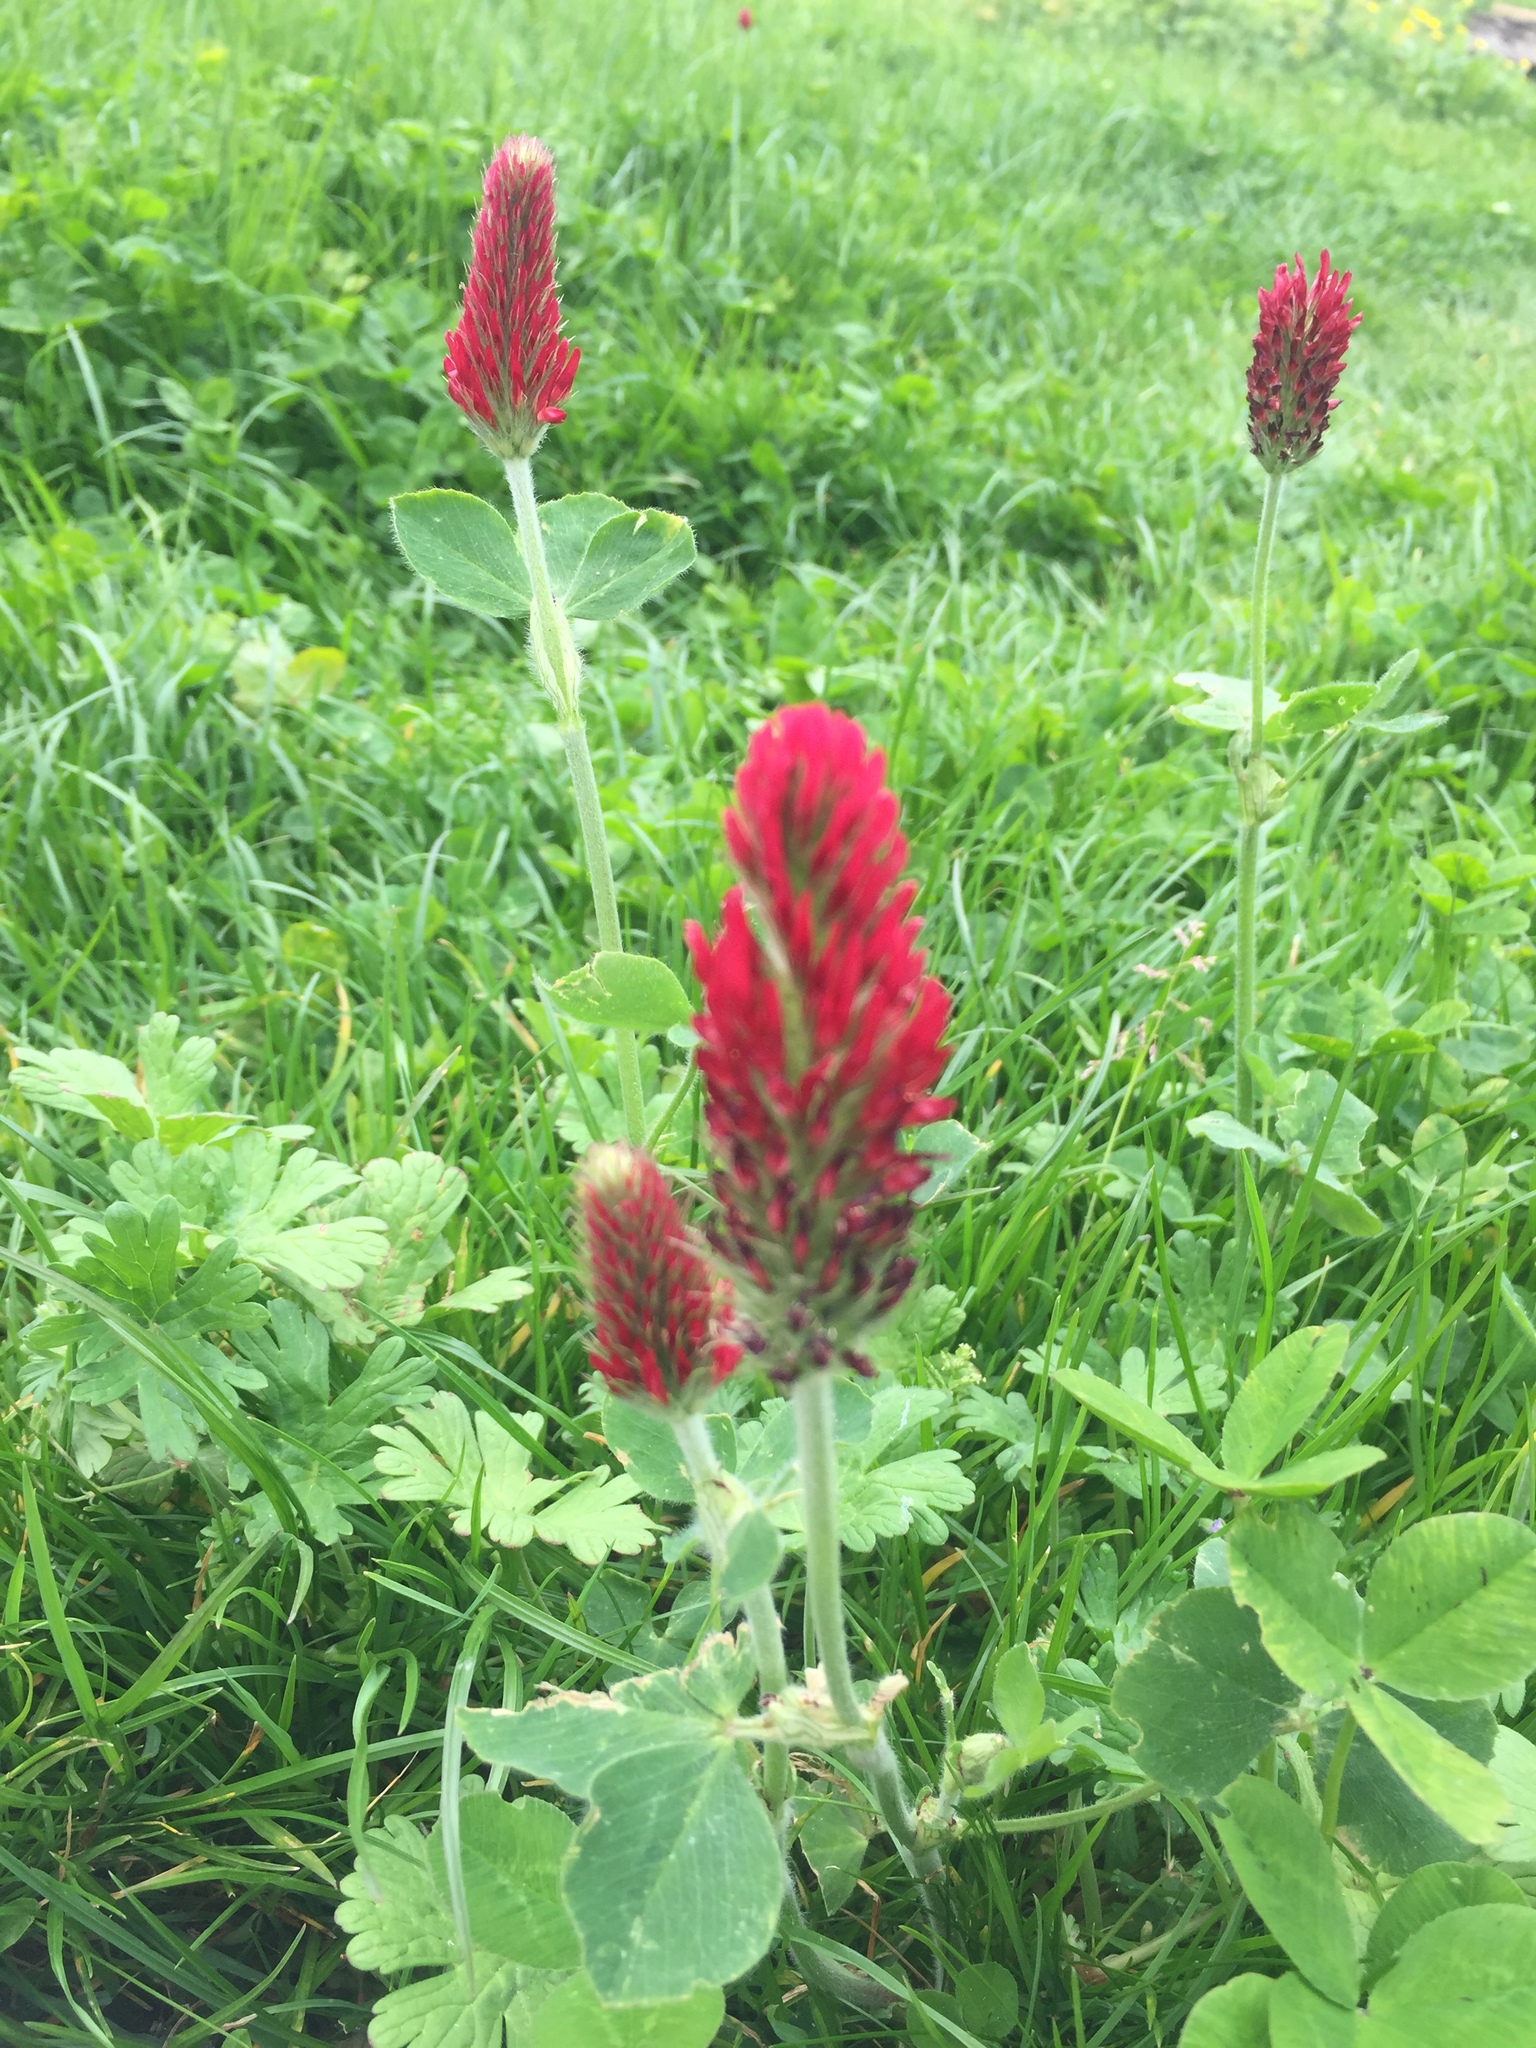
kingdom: Plantae
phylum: Tracheophyta
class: Magnoliopsida
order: Fabales
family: Fabaceae
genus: Trifolium
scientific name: Trifolium incarnatum
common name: Crimson clover
